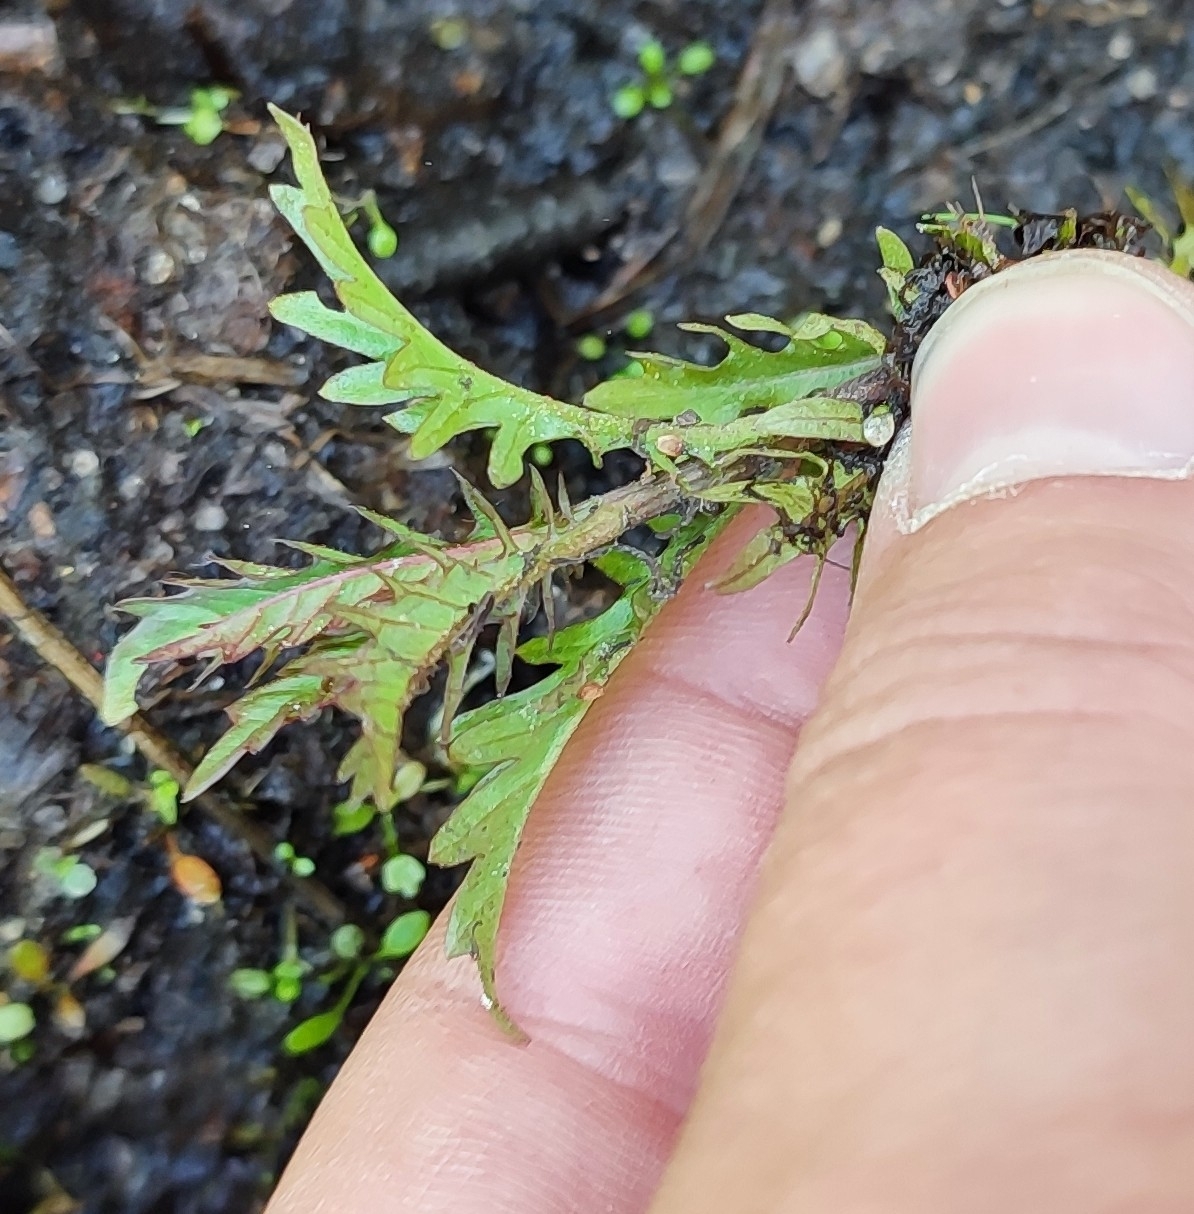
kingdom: Plantae
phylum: Tracheophyta
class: Magnoliopsida
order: Lamiales
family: Lamiaceae
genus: Lycopus
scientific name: Lycopus exaltatus
